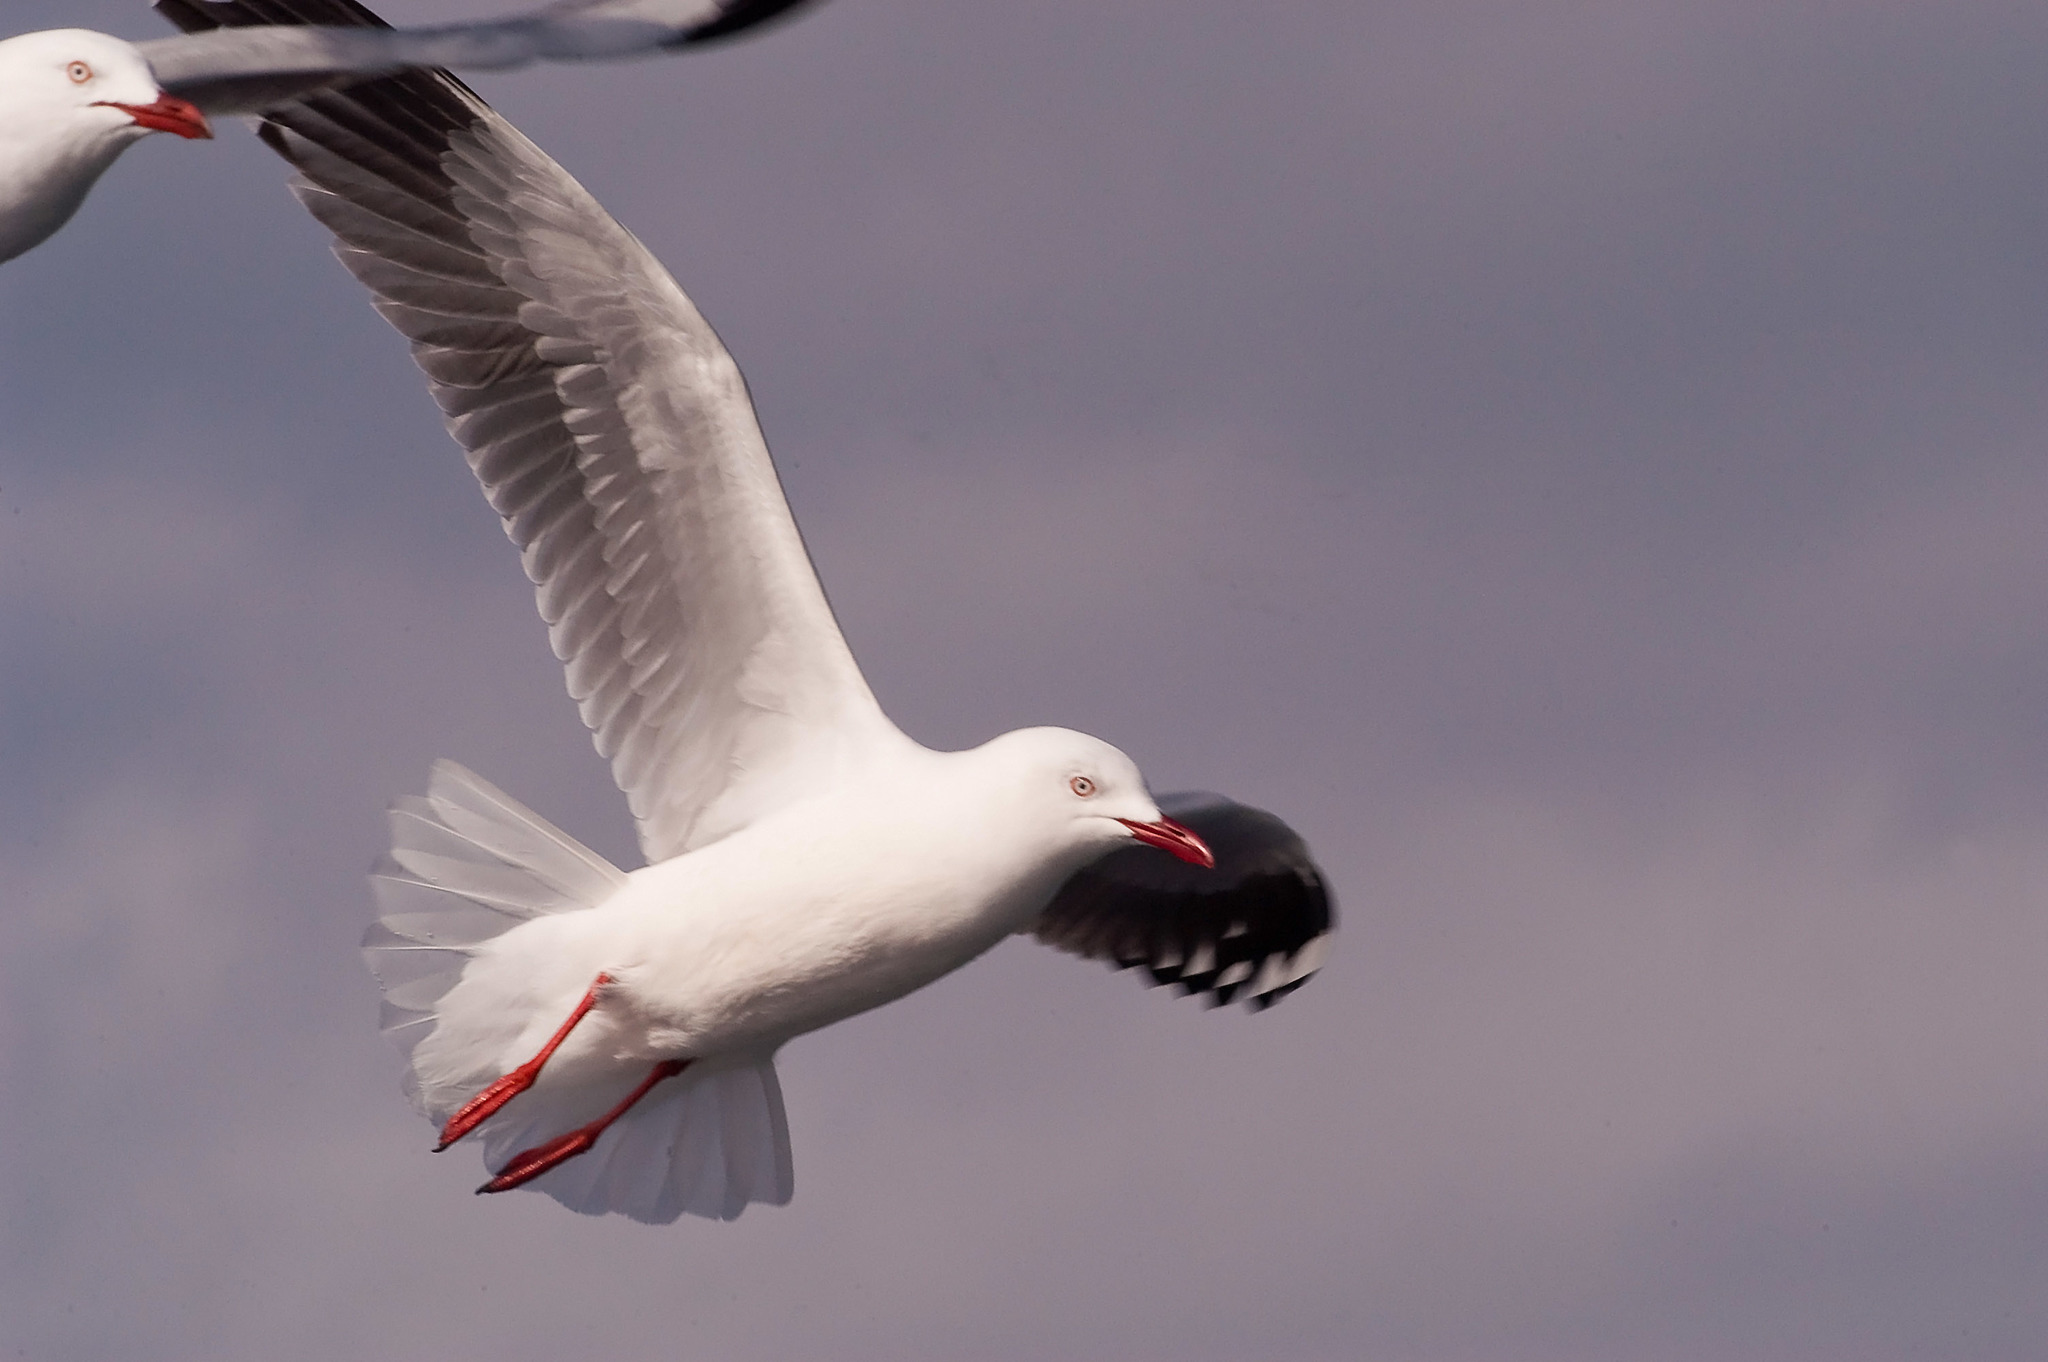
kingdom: Animalia
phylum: Chordata
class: Aves
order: Charadriiformes
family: Laridae
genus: Chroicocephalus
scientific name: Chroicocephalus novaehollandiae
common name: Silver gull
